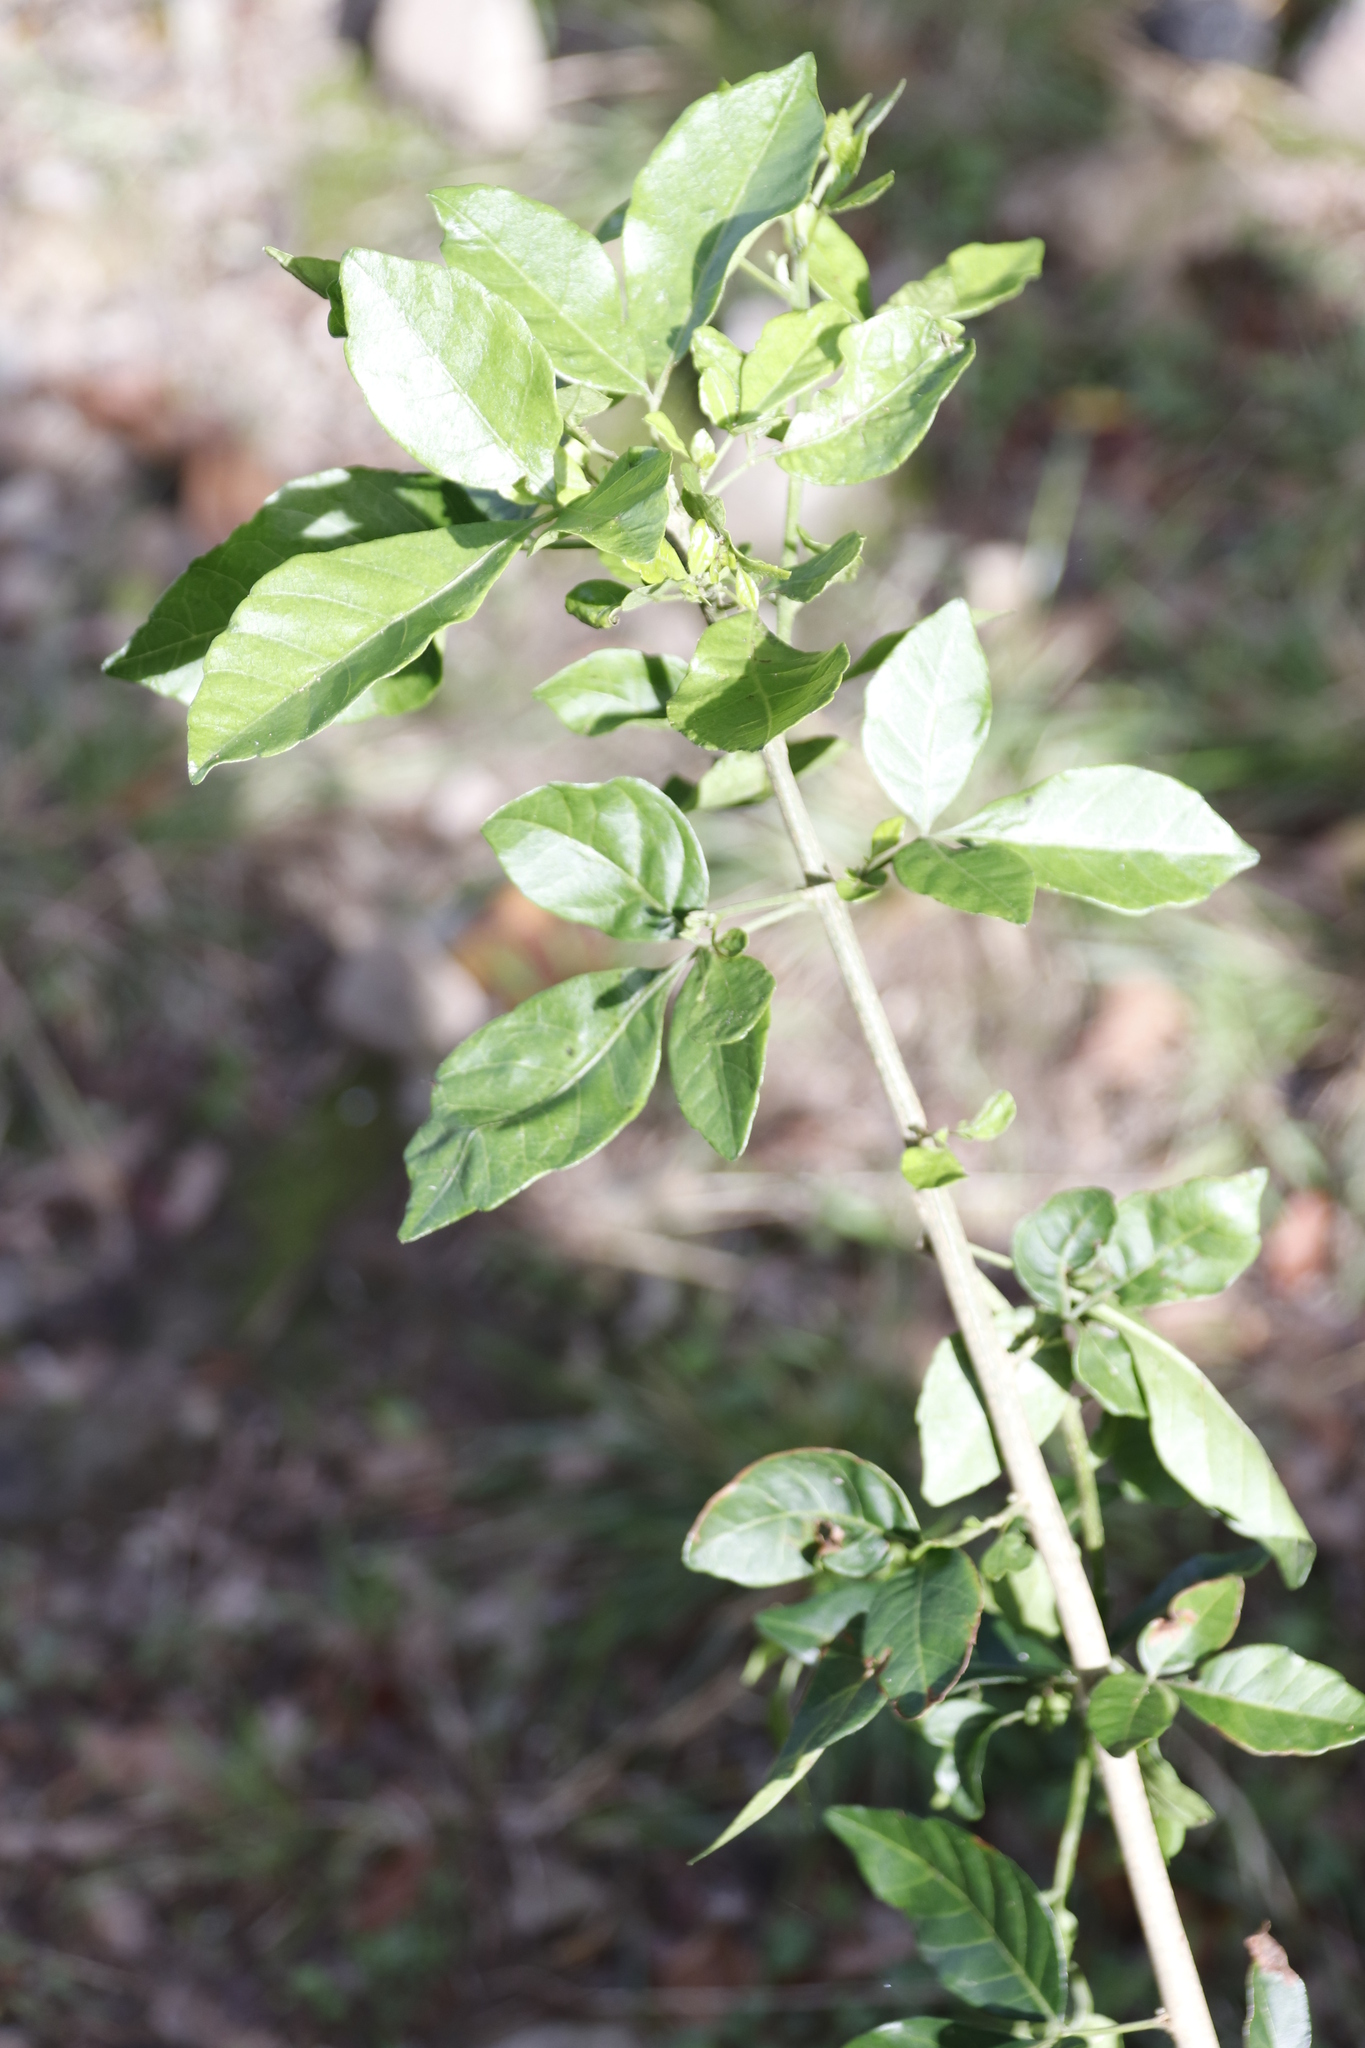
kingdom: Plantae
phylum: Tracheophyta
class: Magnoliopsida
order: Sapindales
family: Sapindaceae
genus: Allophylus
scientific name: Allophylus decipiens
